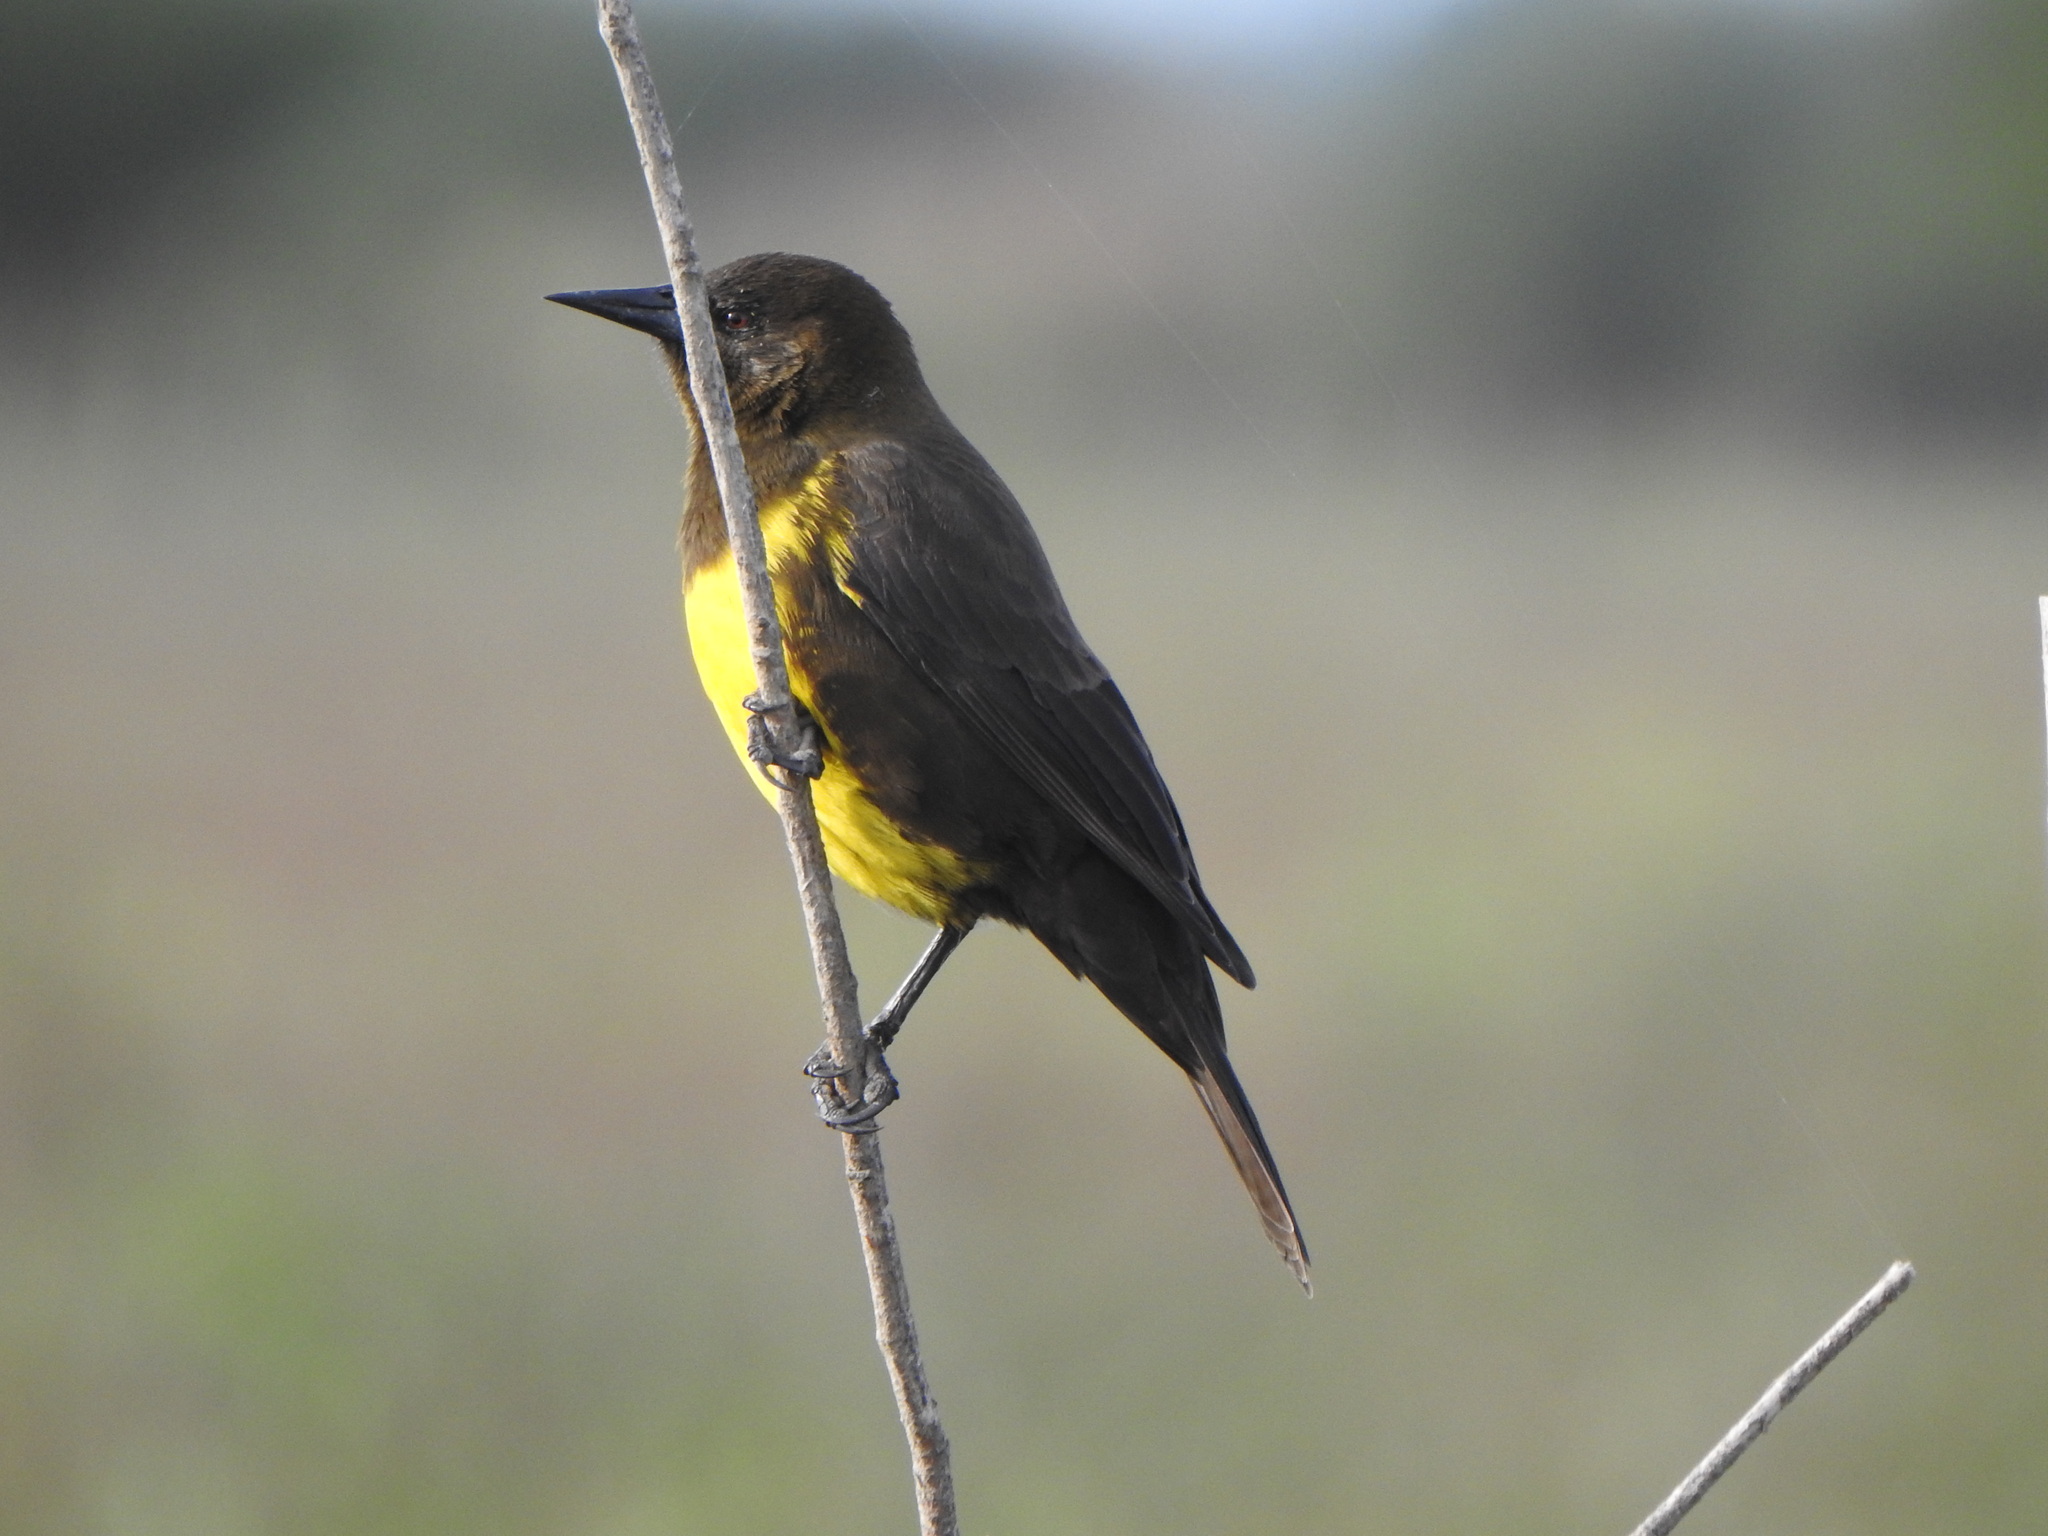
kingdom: Animalia
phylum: Chordata
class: Aves
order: Passeriformes
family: Icteridae
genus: Pseudoleistes
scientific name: Pseudoleistes virescens
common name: Brown-and-yellow marshbird
